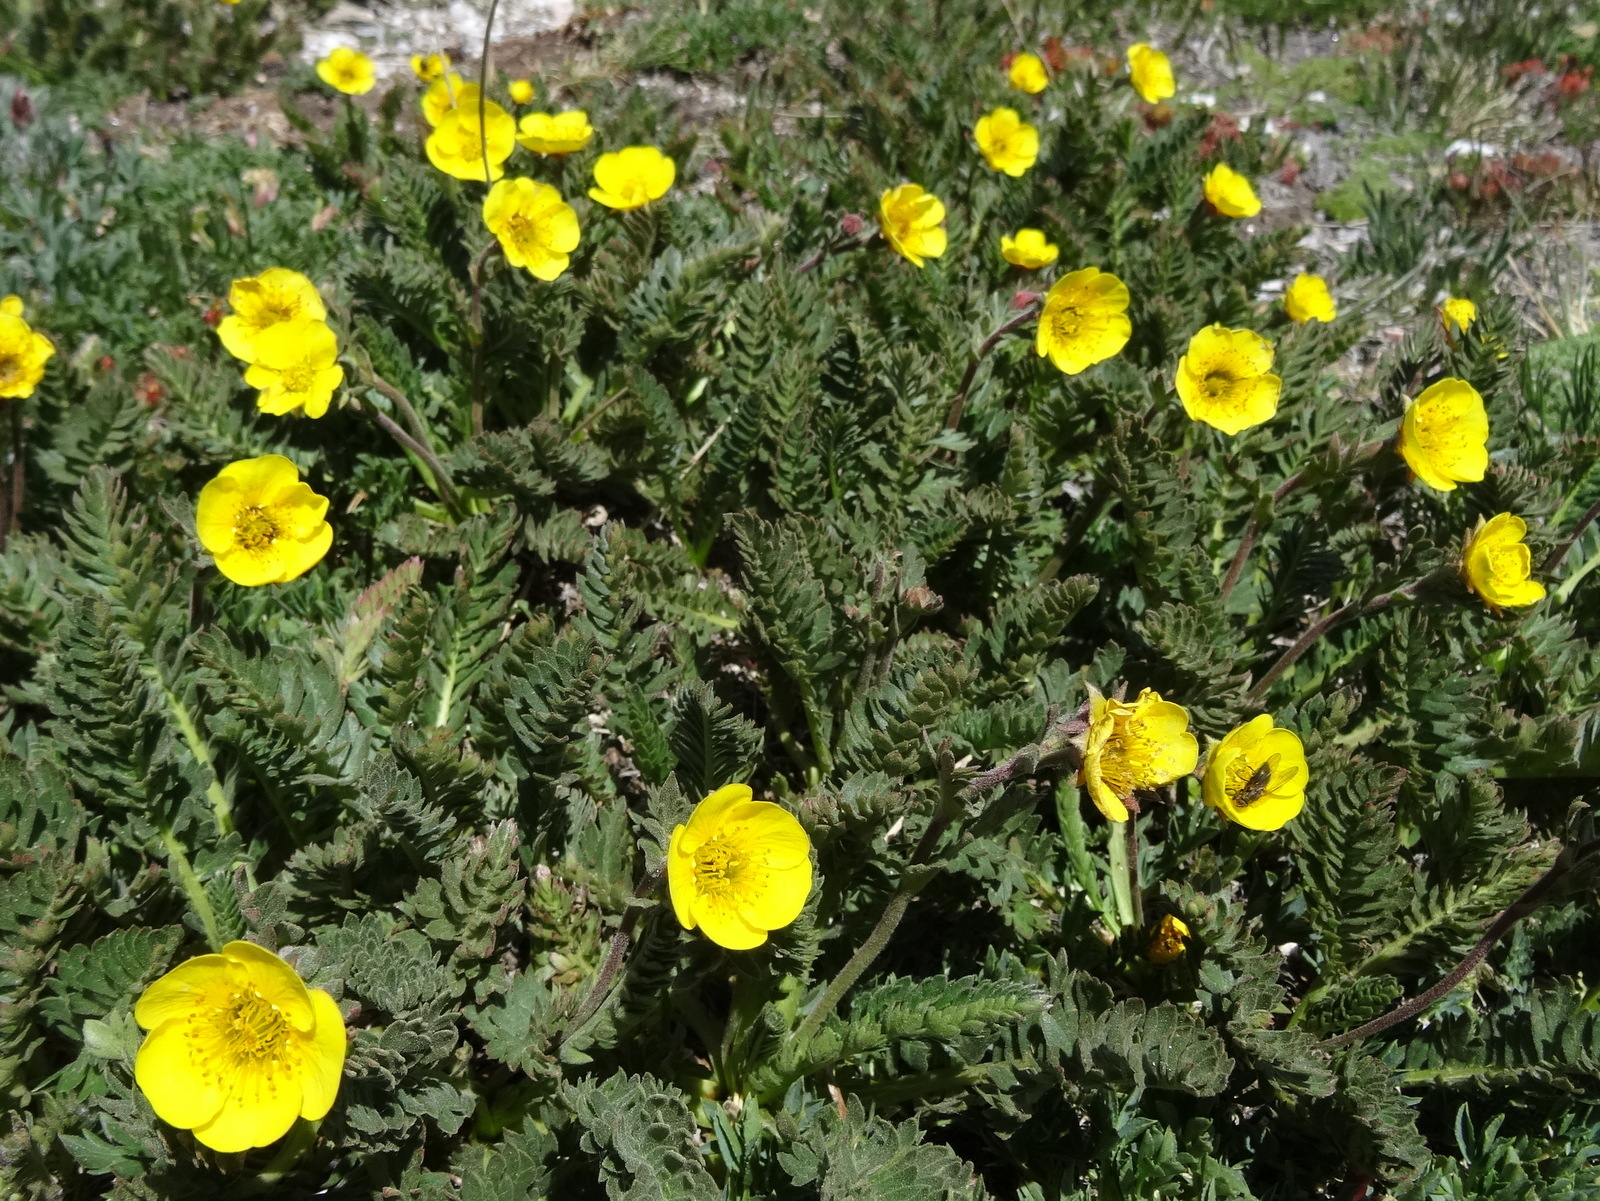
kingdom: Plantae
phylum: Tracheophyta
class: Magnoliopsida
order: Rosales
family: Rosaceae
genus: Geum
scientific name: Geum rossii
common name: Alpine avens
